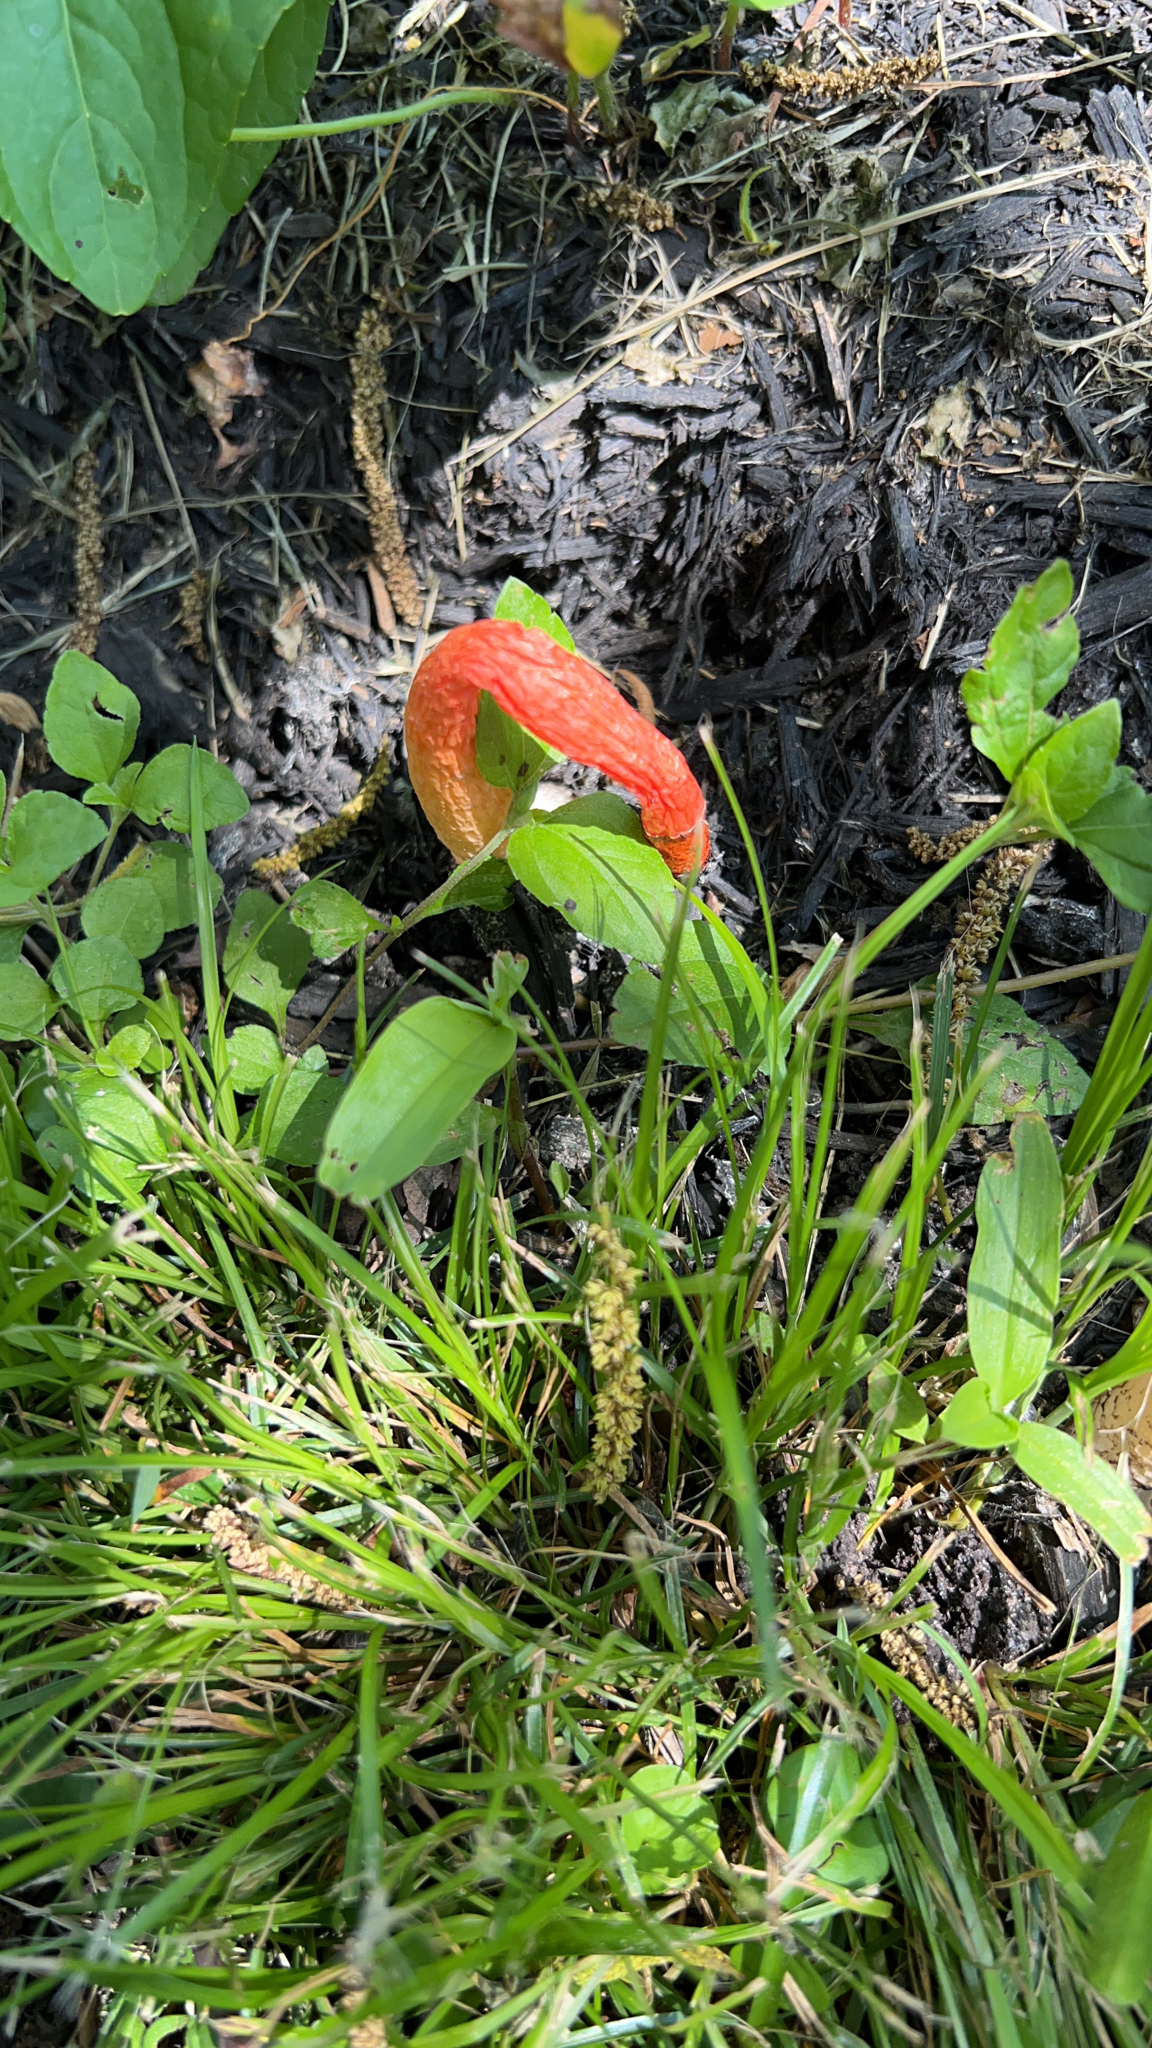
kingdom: Fungi
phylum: Basidiomycota
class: Agaricomycetes
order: Phallales
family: Phallaceae
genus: Phallus
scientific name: Phallus rubicundus
